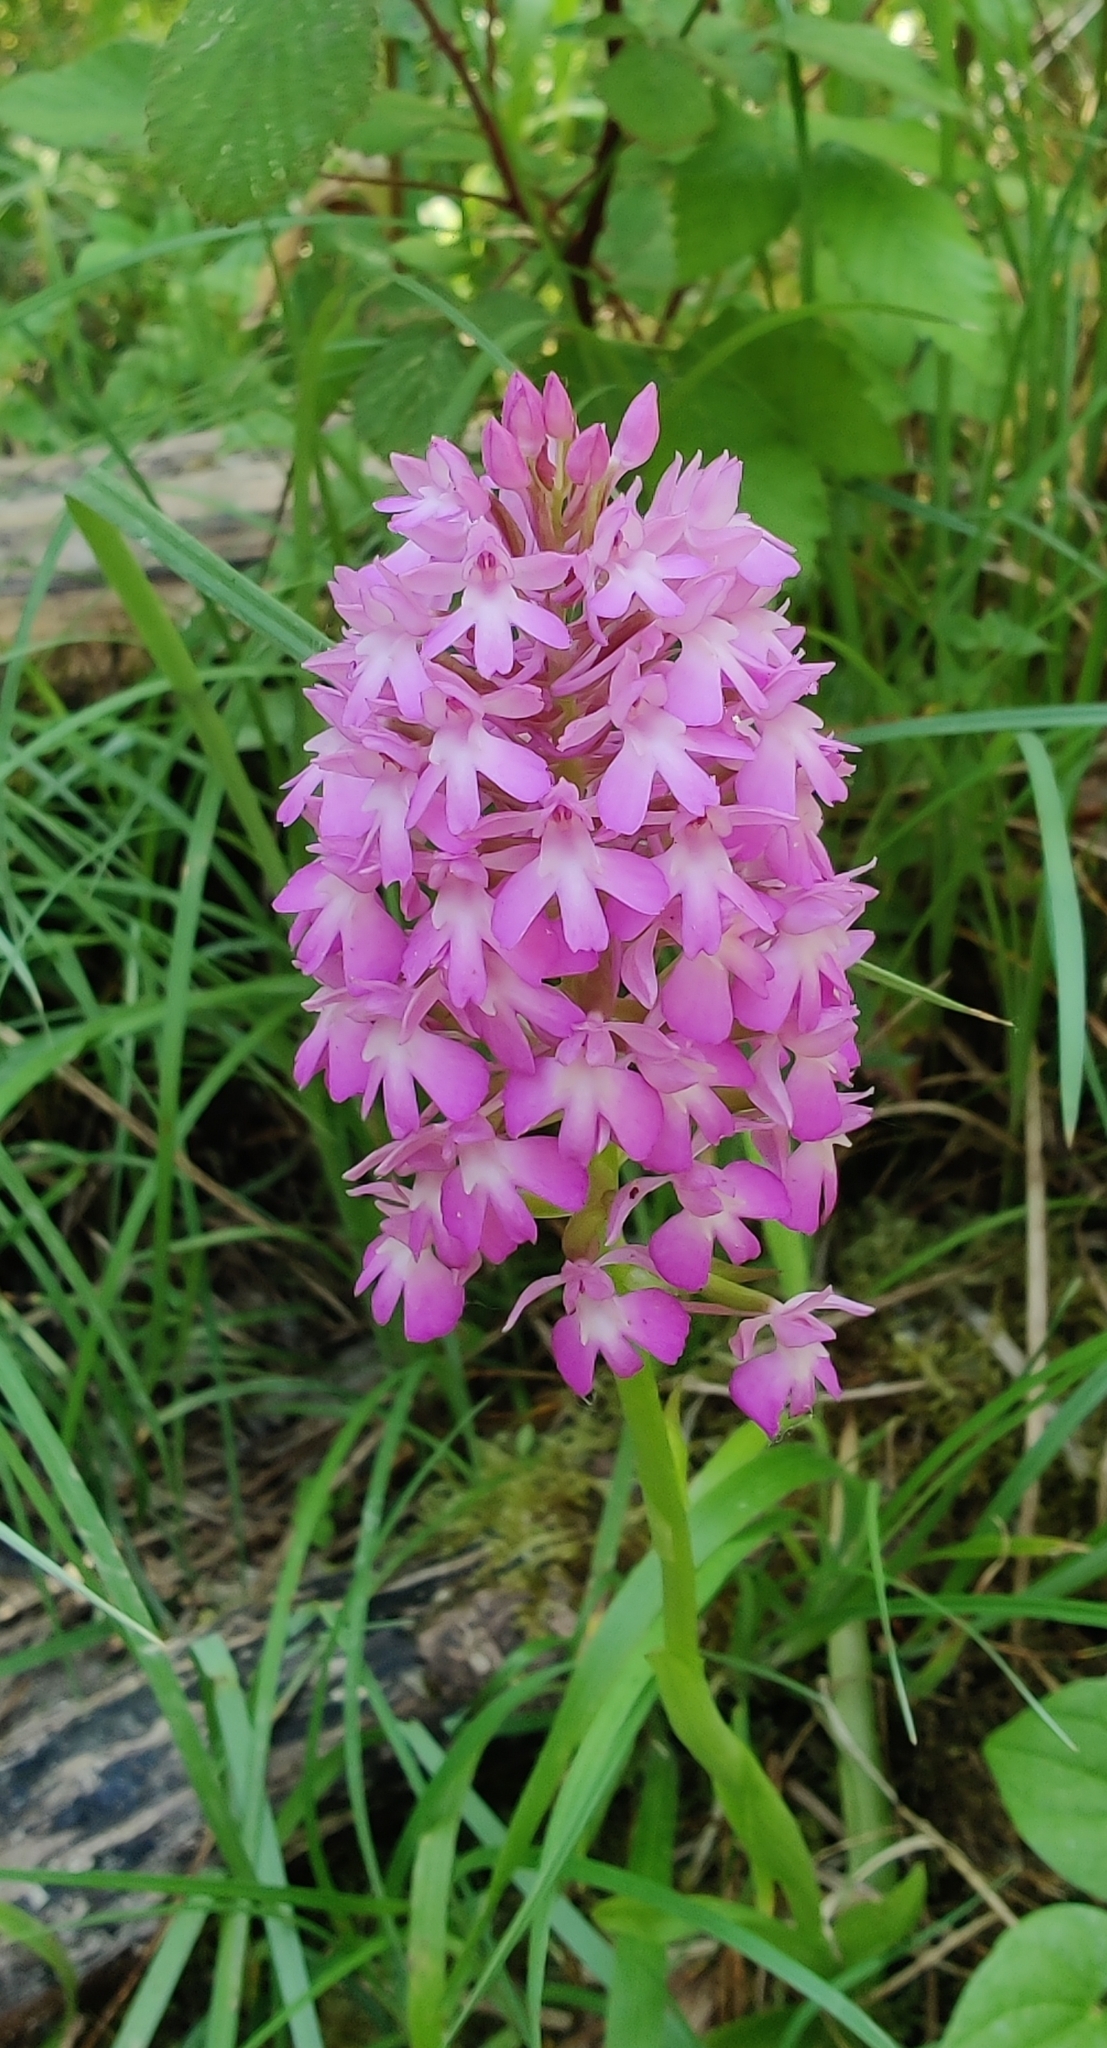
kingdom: Plantae
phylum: Tracheophyta
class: Liliopsida
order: Asparagales
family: Orchidaceae
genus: Anacamptis
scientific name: Anacamptis pyramidalis
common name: Pyramidal orchid
